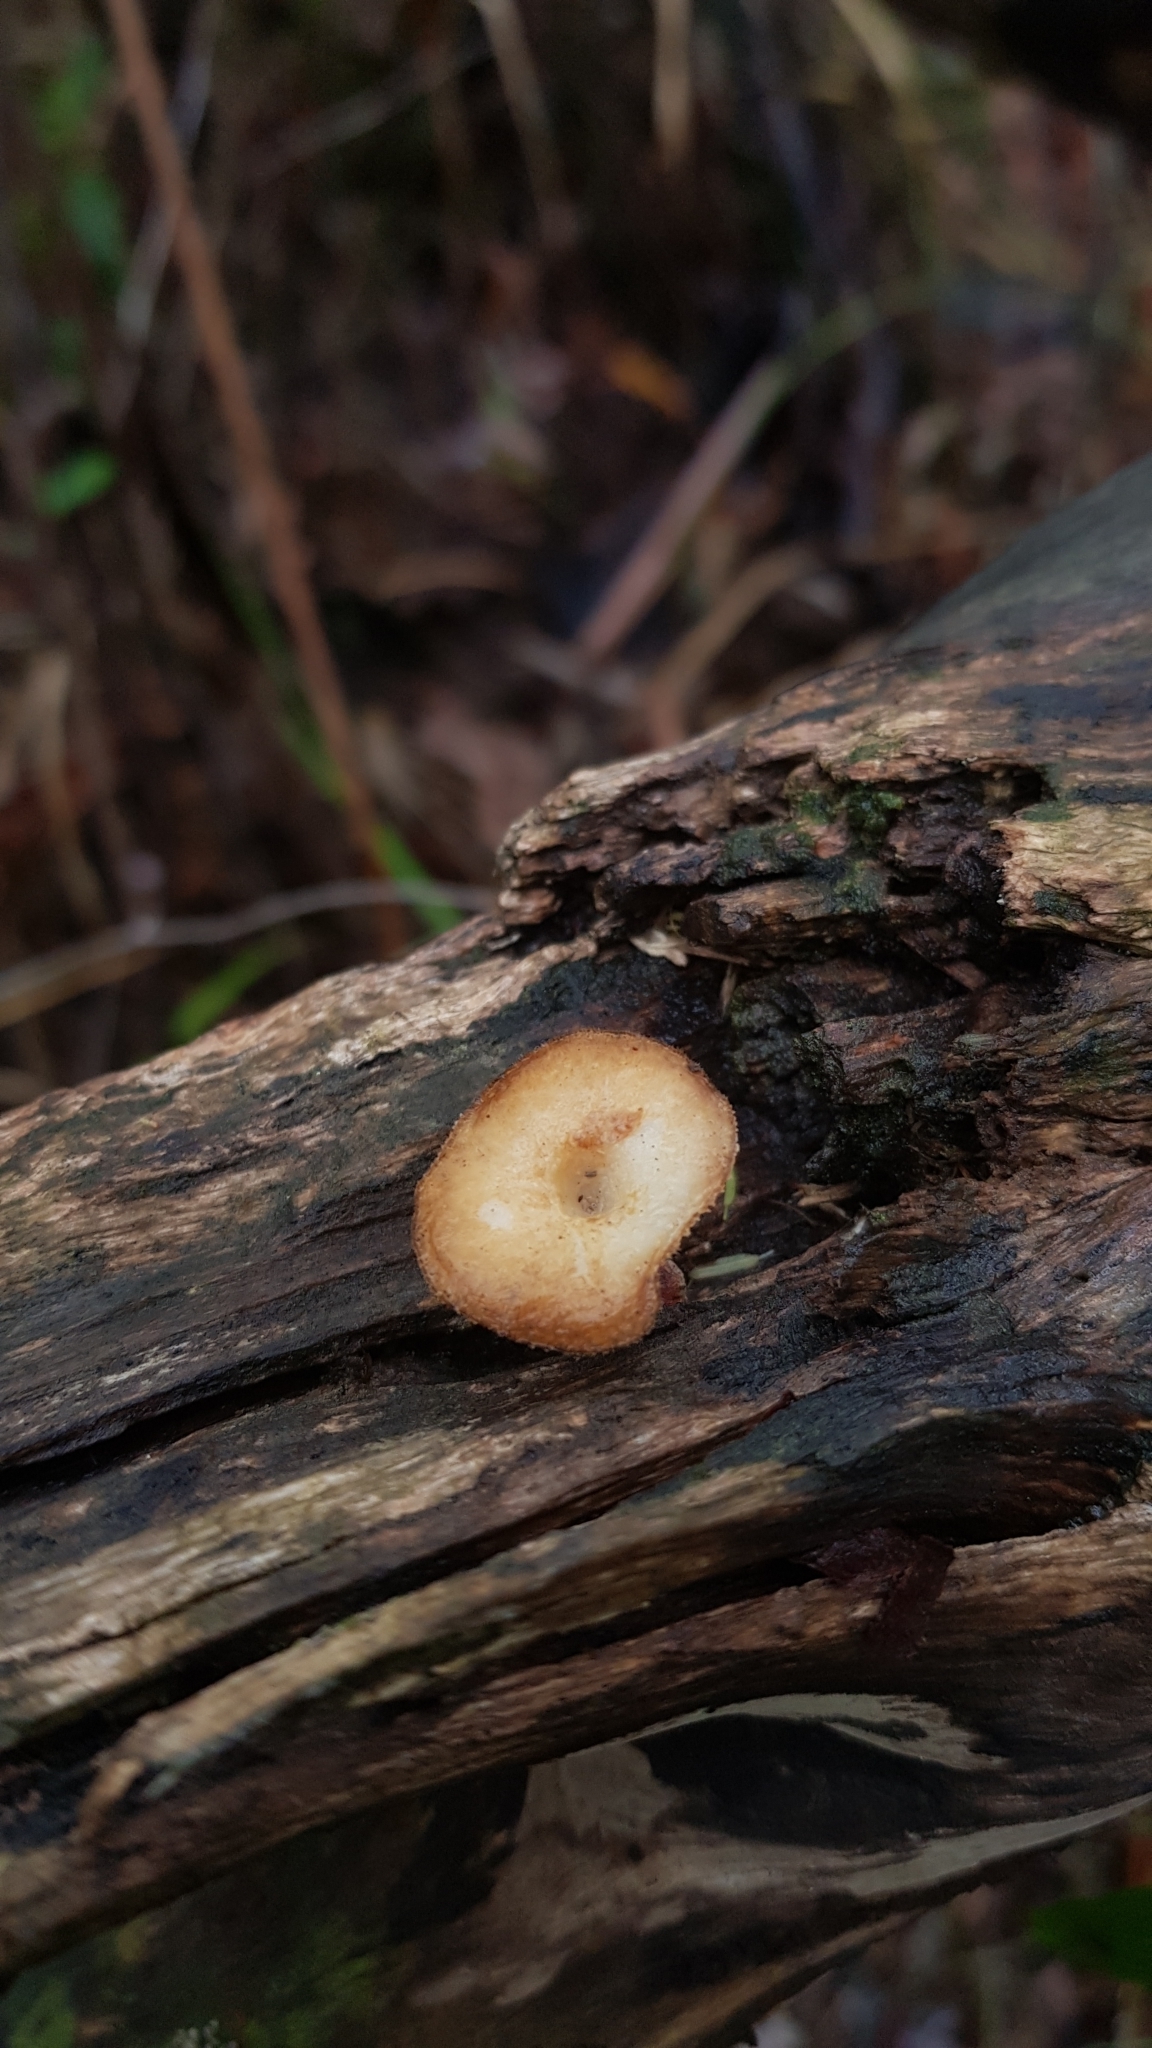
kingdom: Fungi
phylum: Basidiomycota
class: Agaricomycetes
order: Polyporales
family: Polyporaceae
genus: Lentinus
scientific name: Lentinus arcularius
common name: Spring polypore
